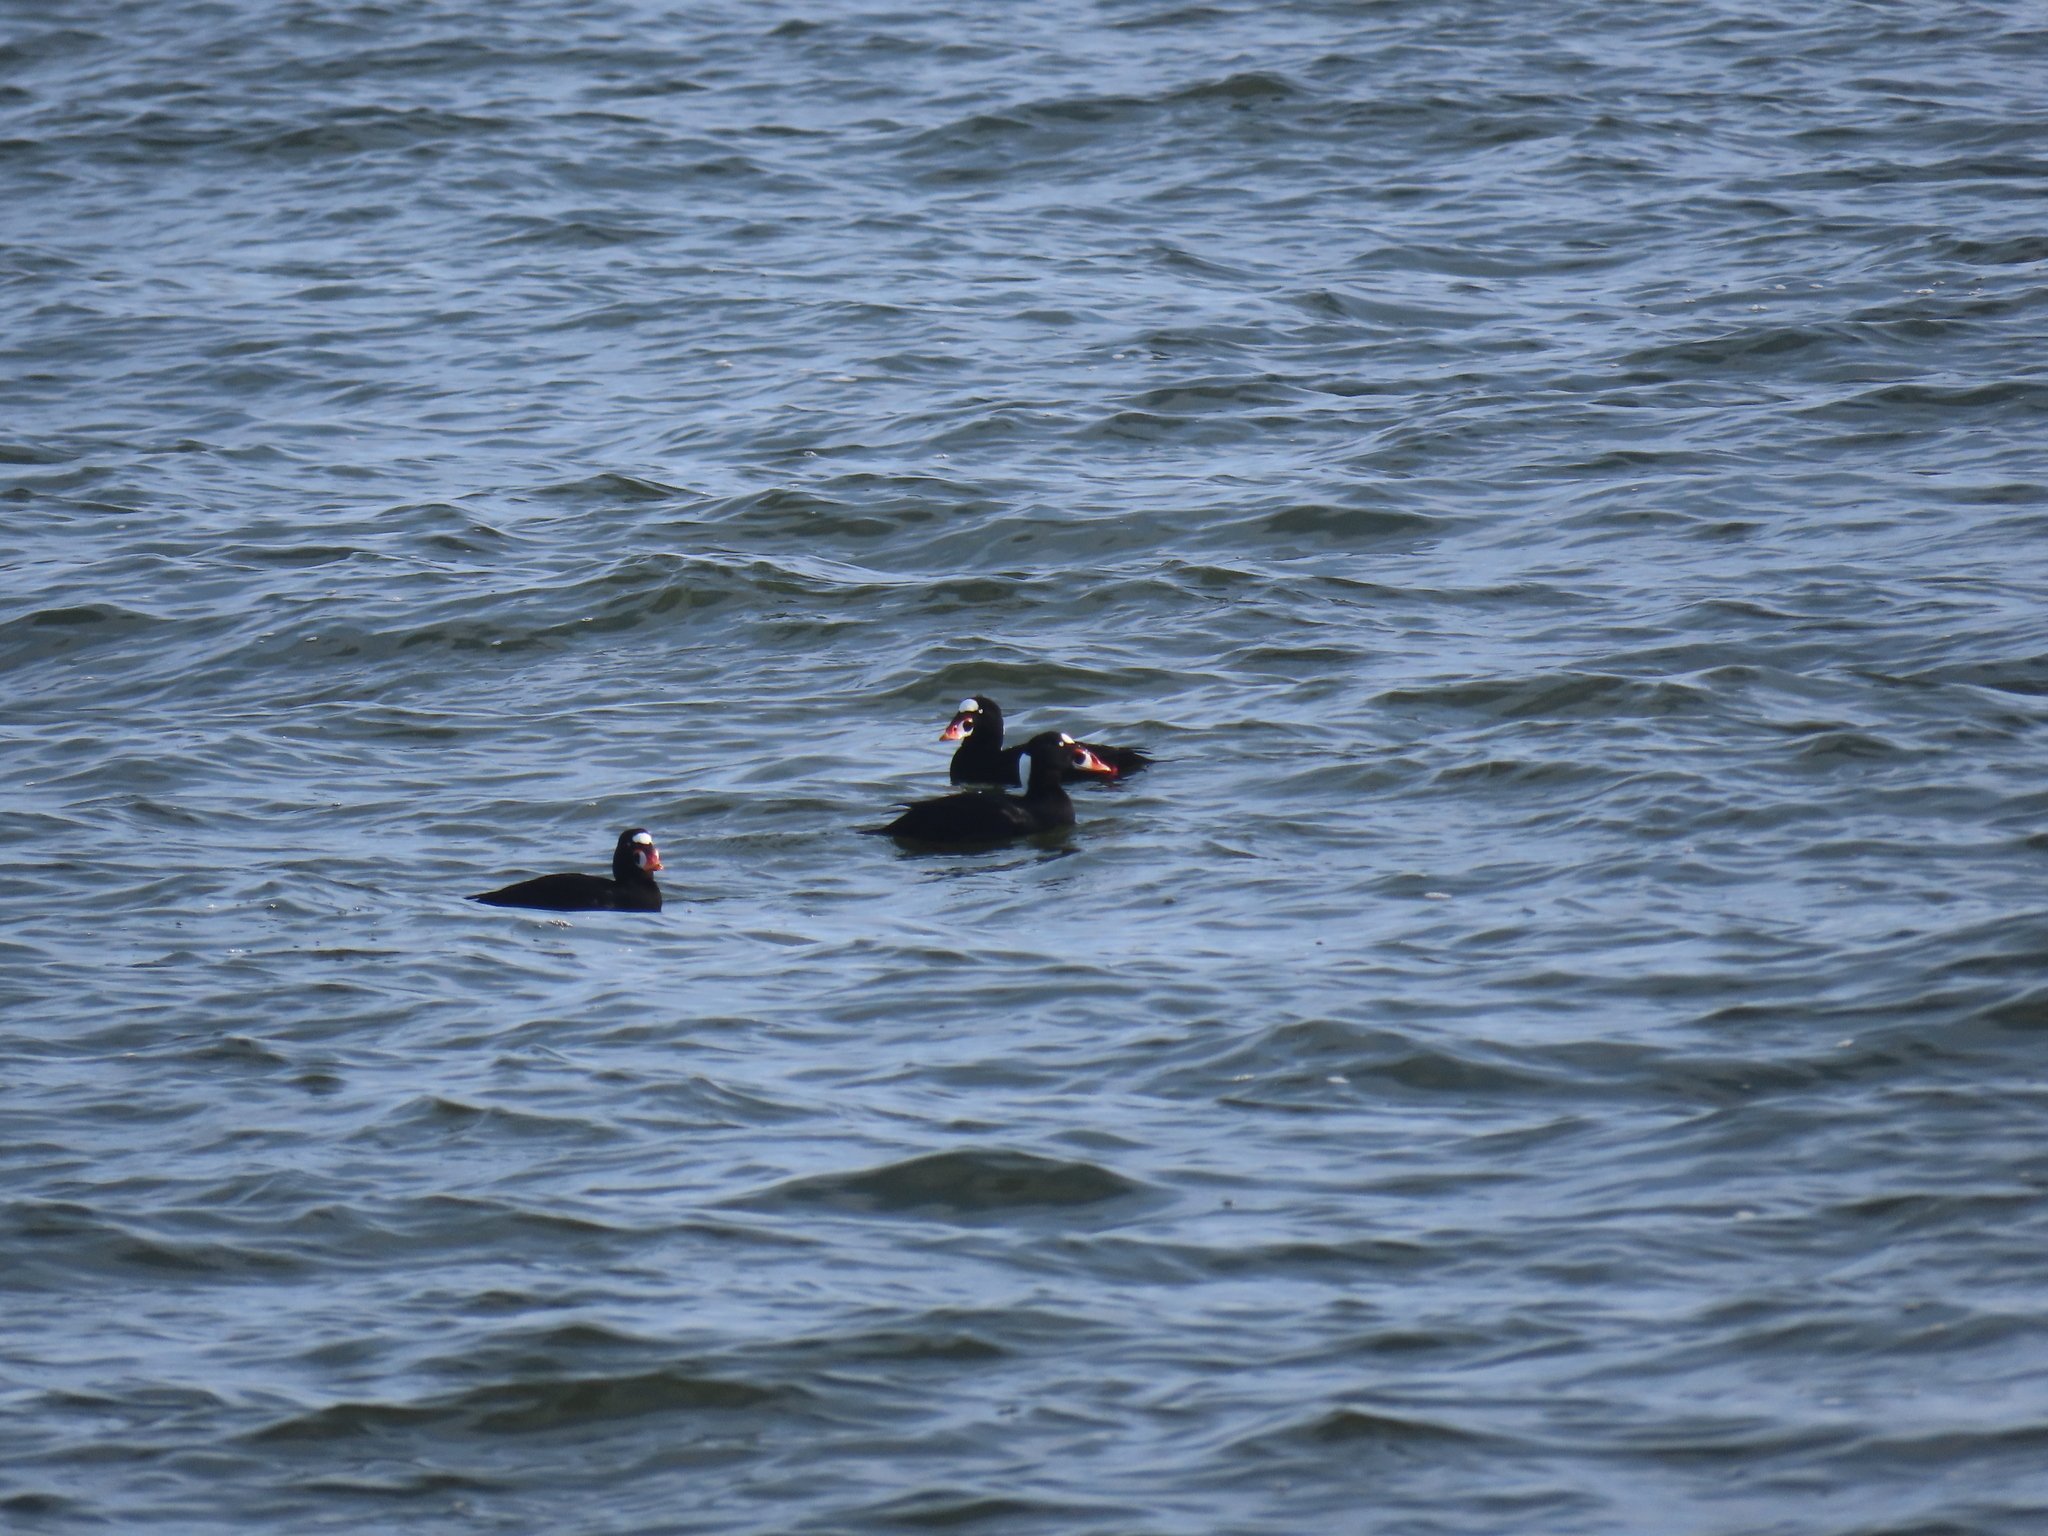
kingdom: Animalia
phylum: Chordata
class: Aves
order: Anseriformes
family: Anatidae
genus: Melanitta
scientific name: Melanitta perspicillata
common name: Surf scoter
